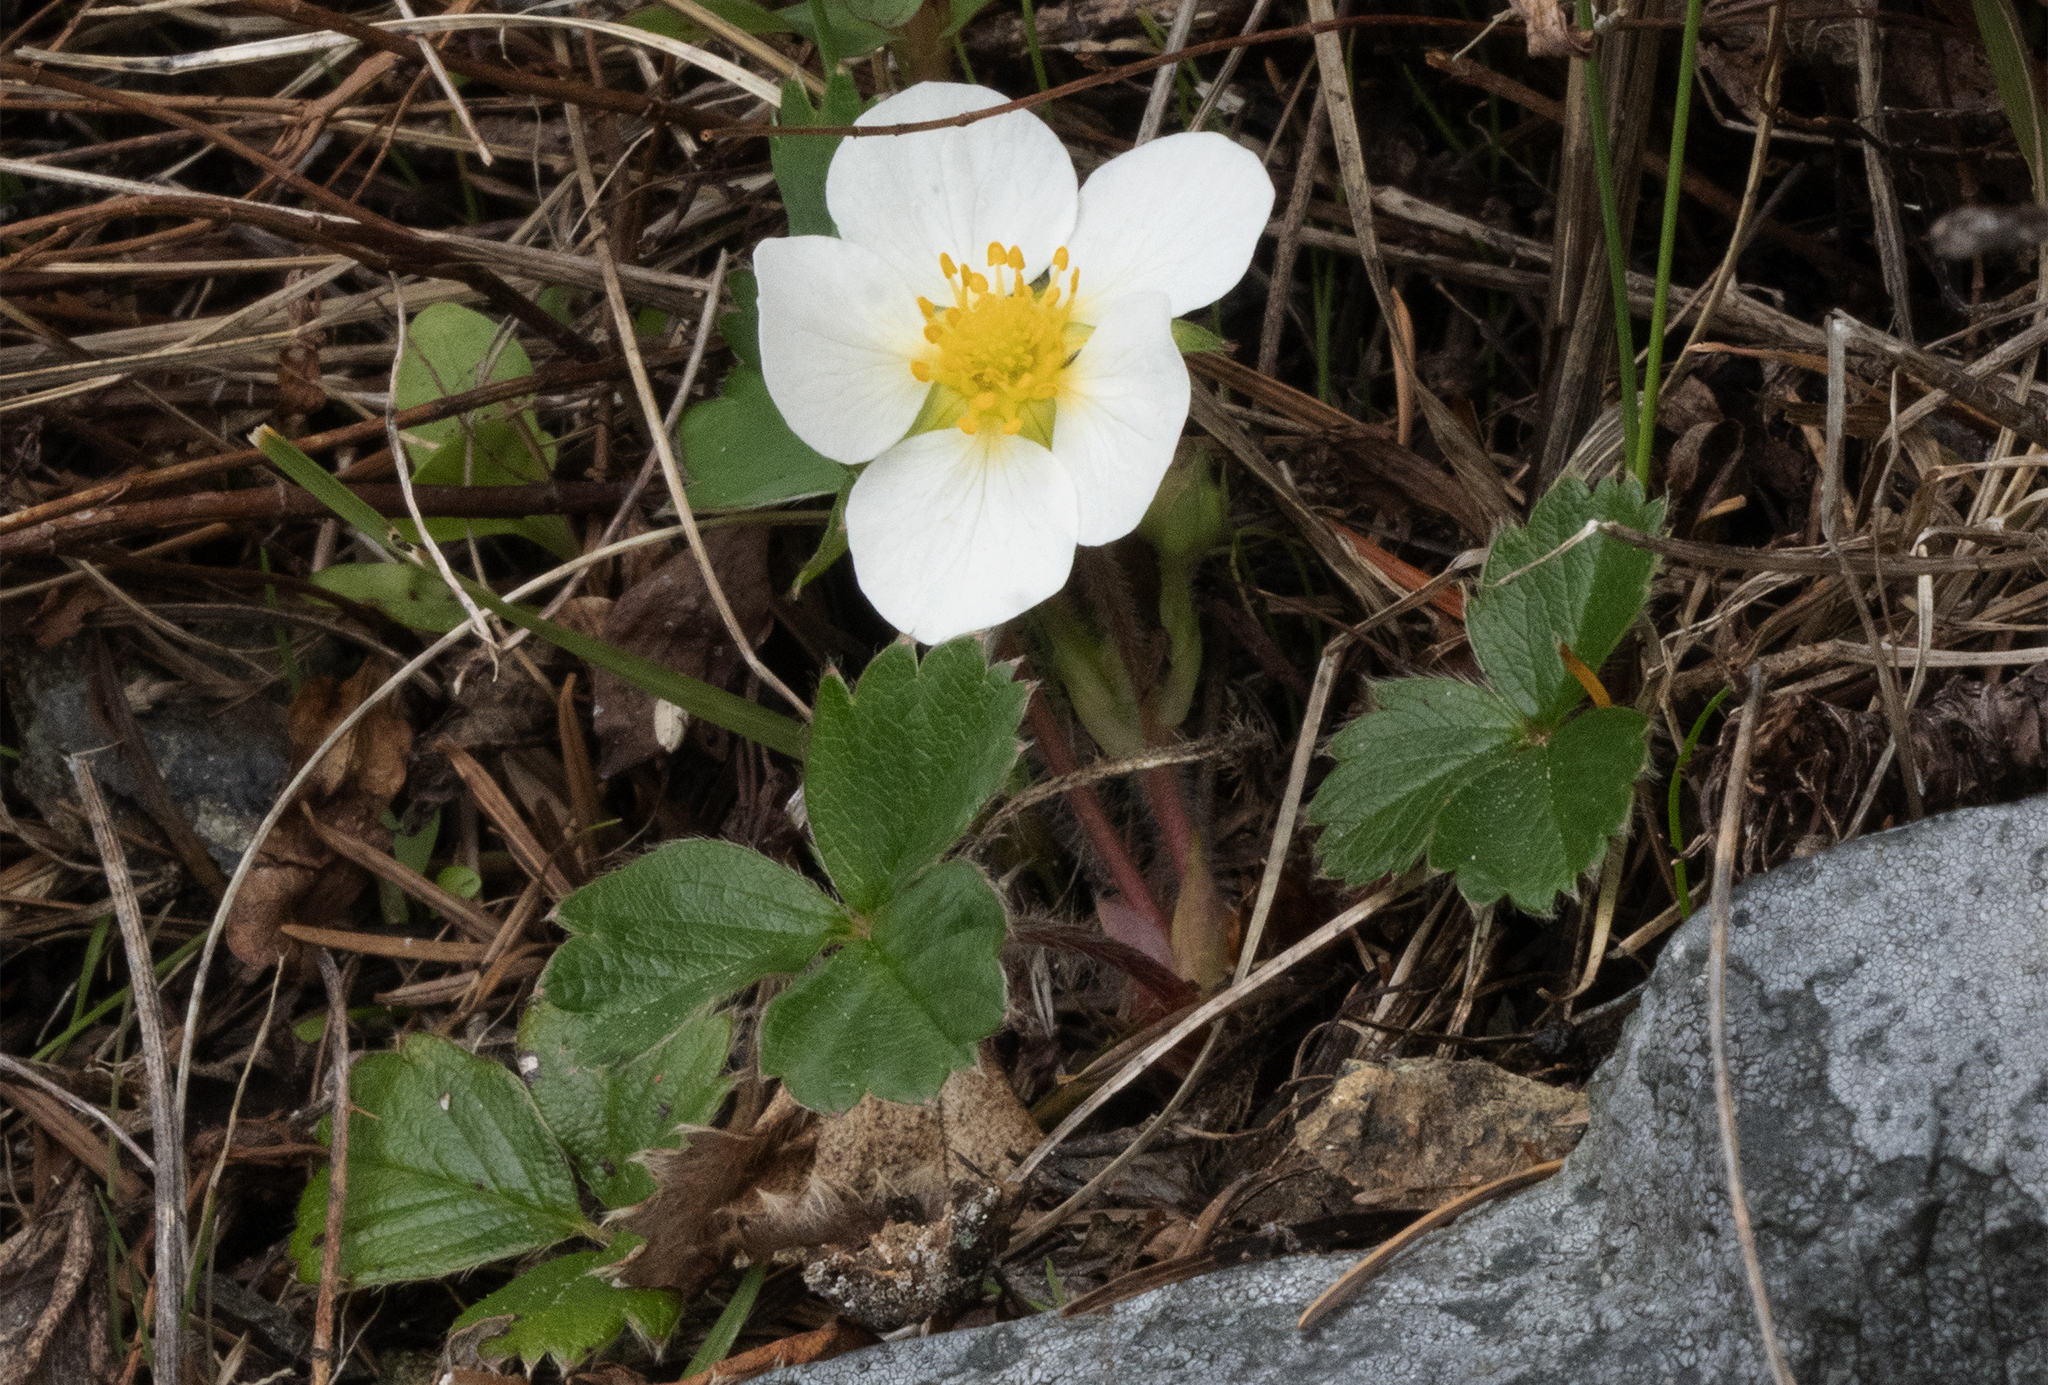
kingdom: Plantae
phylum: Tracheophyta
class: Magnoliopsida
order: Rosales
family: Rosaceae
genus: Fragaria
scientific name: Fragaria chiloensis
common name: Beach strawberry
